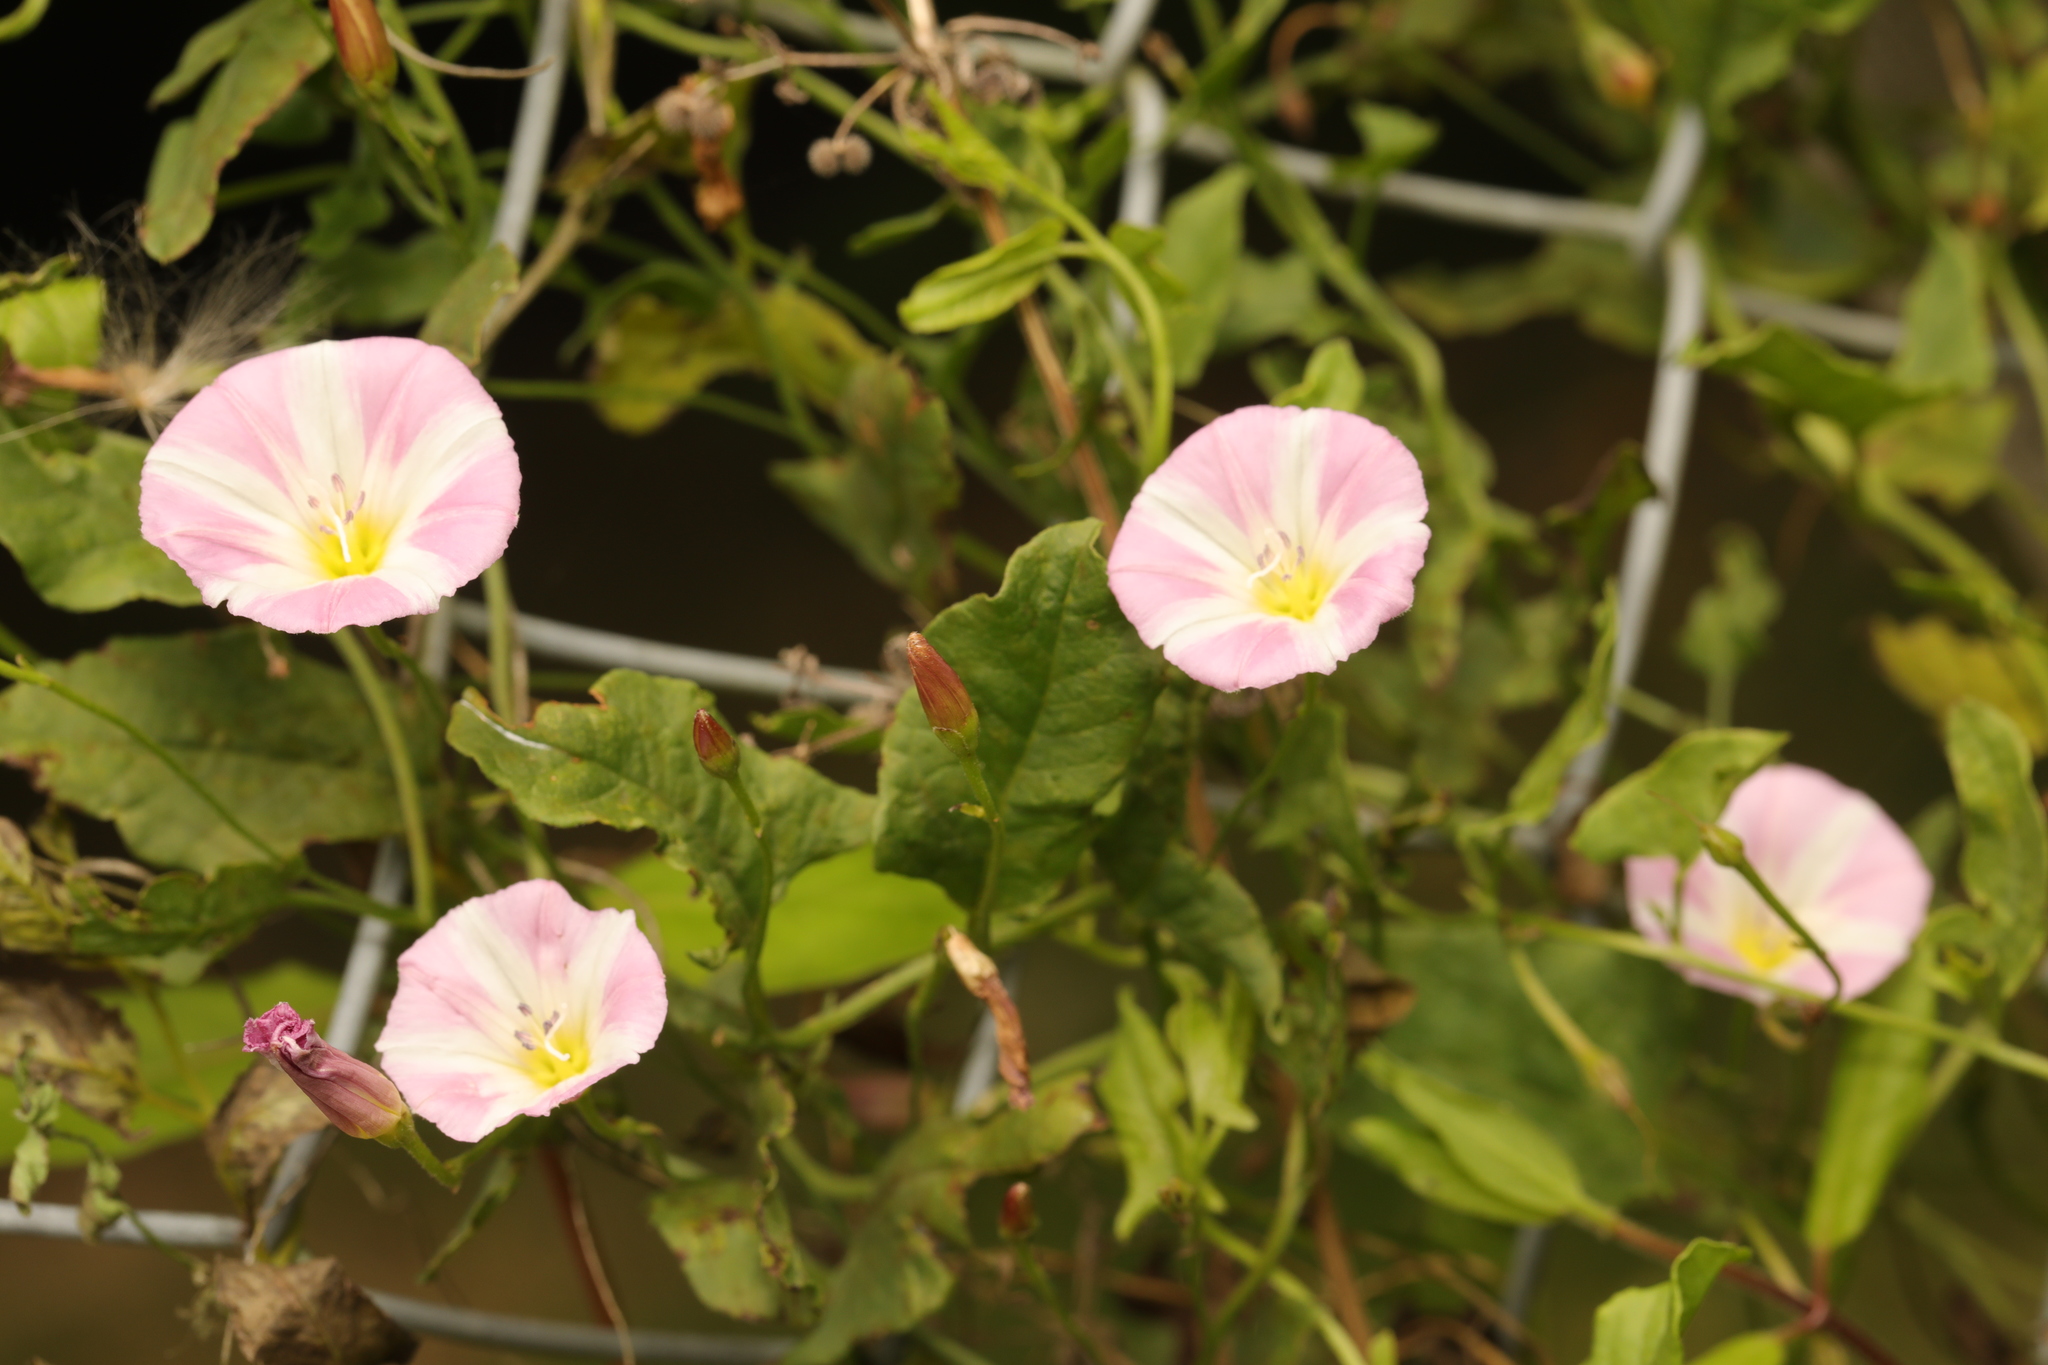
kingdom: Plantae
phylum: Tracheophyta
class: Magnoliopsida
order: Solanales
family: Convolvulaceae
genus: Convolvulus
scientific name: Convolvulus arvensis
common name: Field bindweed
